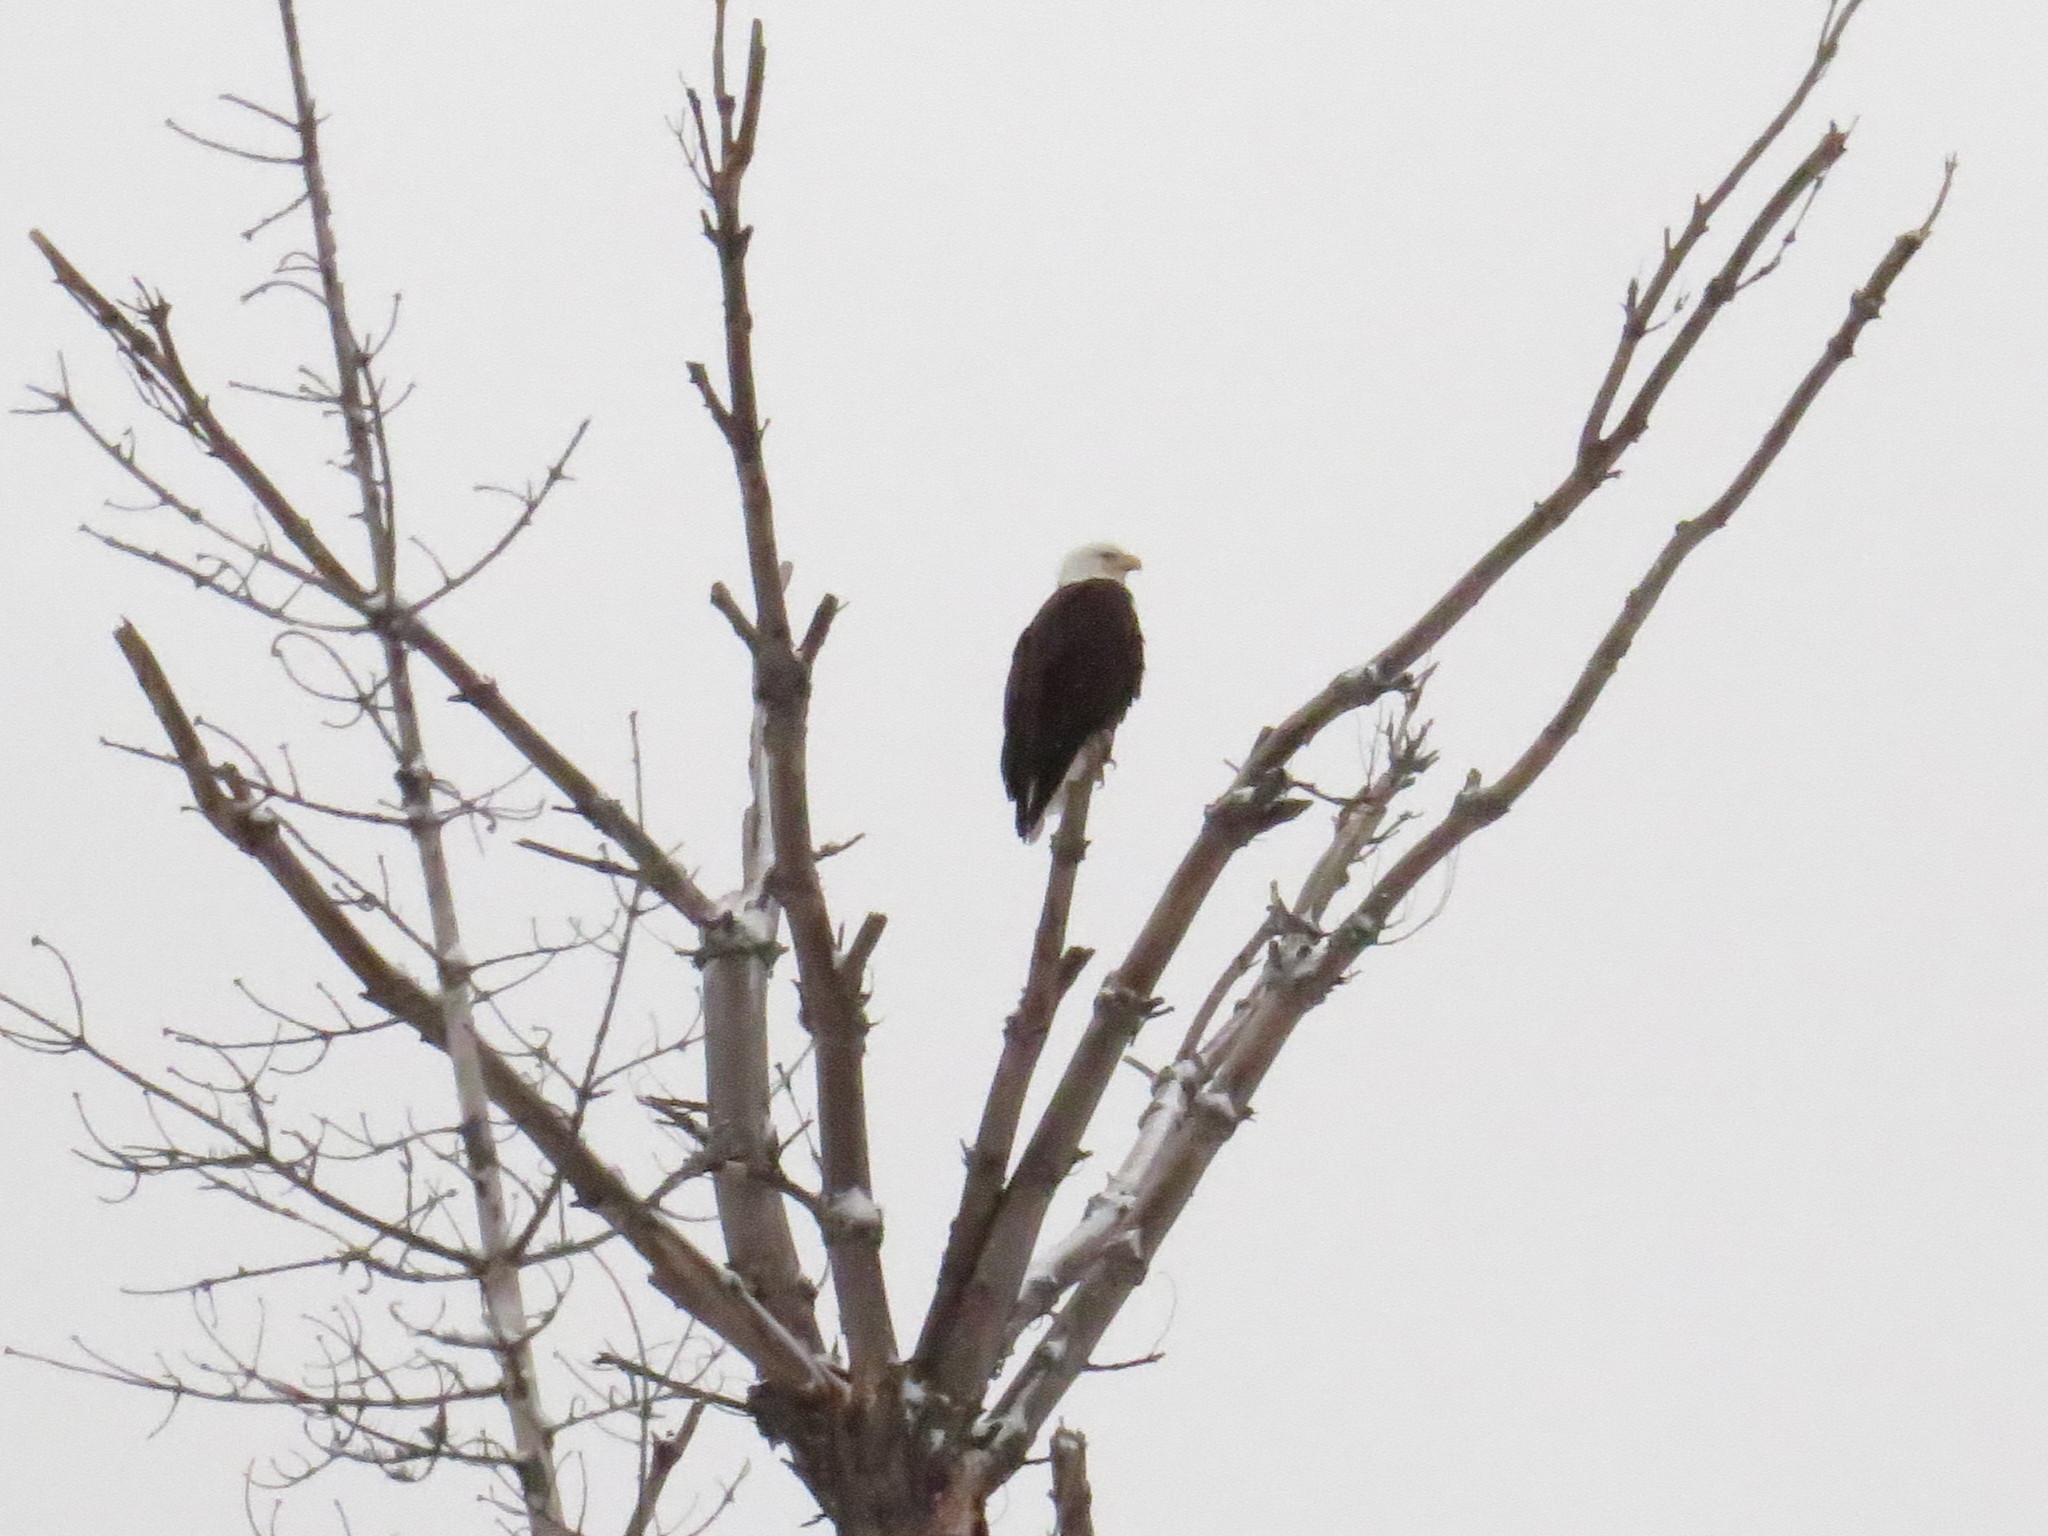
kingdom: Animalia
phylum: Chordata
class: Aves
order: Accipitriformes
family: Accipitridae
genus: Haliaeetus
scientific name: Haliaeetus leucocephalus
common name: Bald eagle
